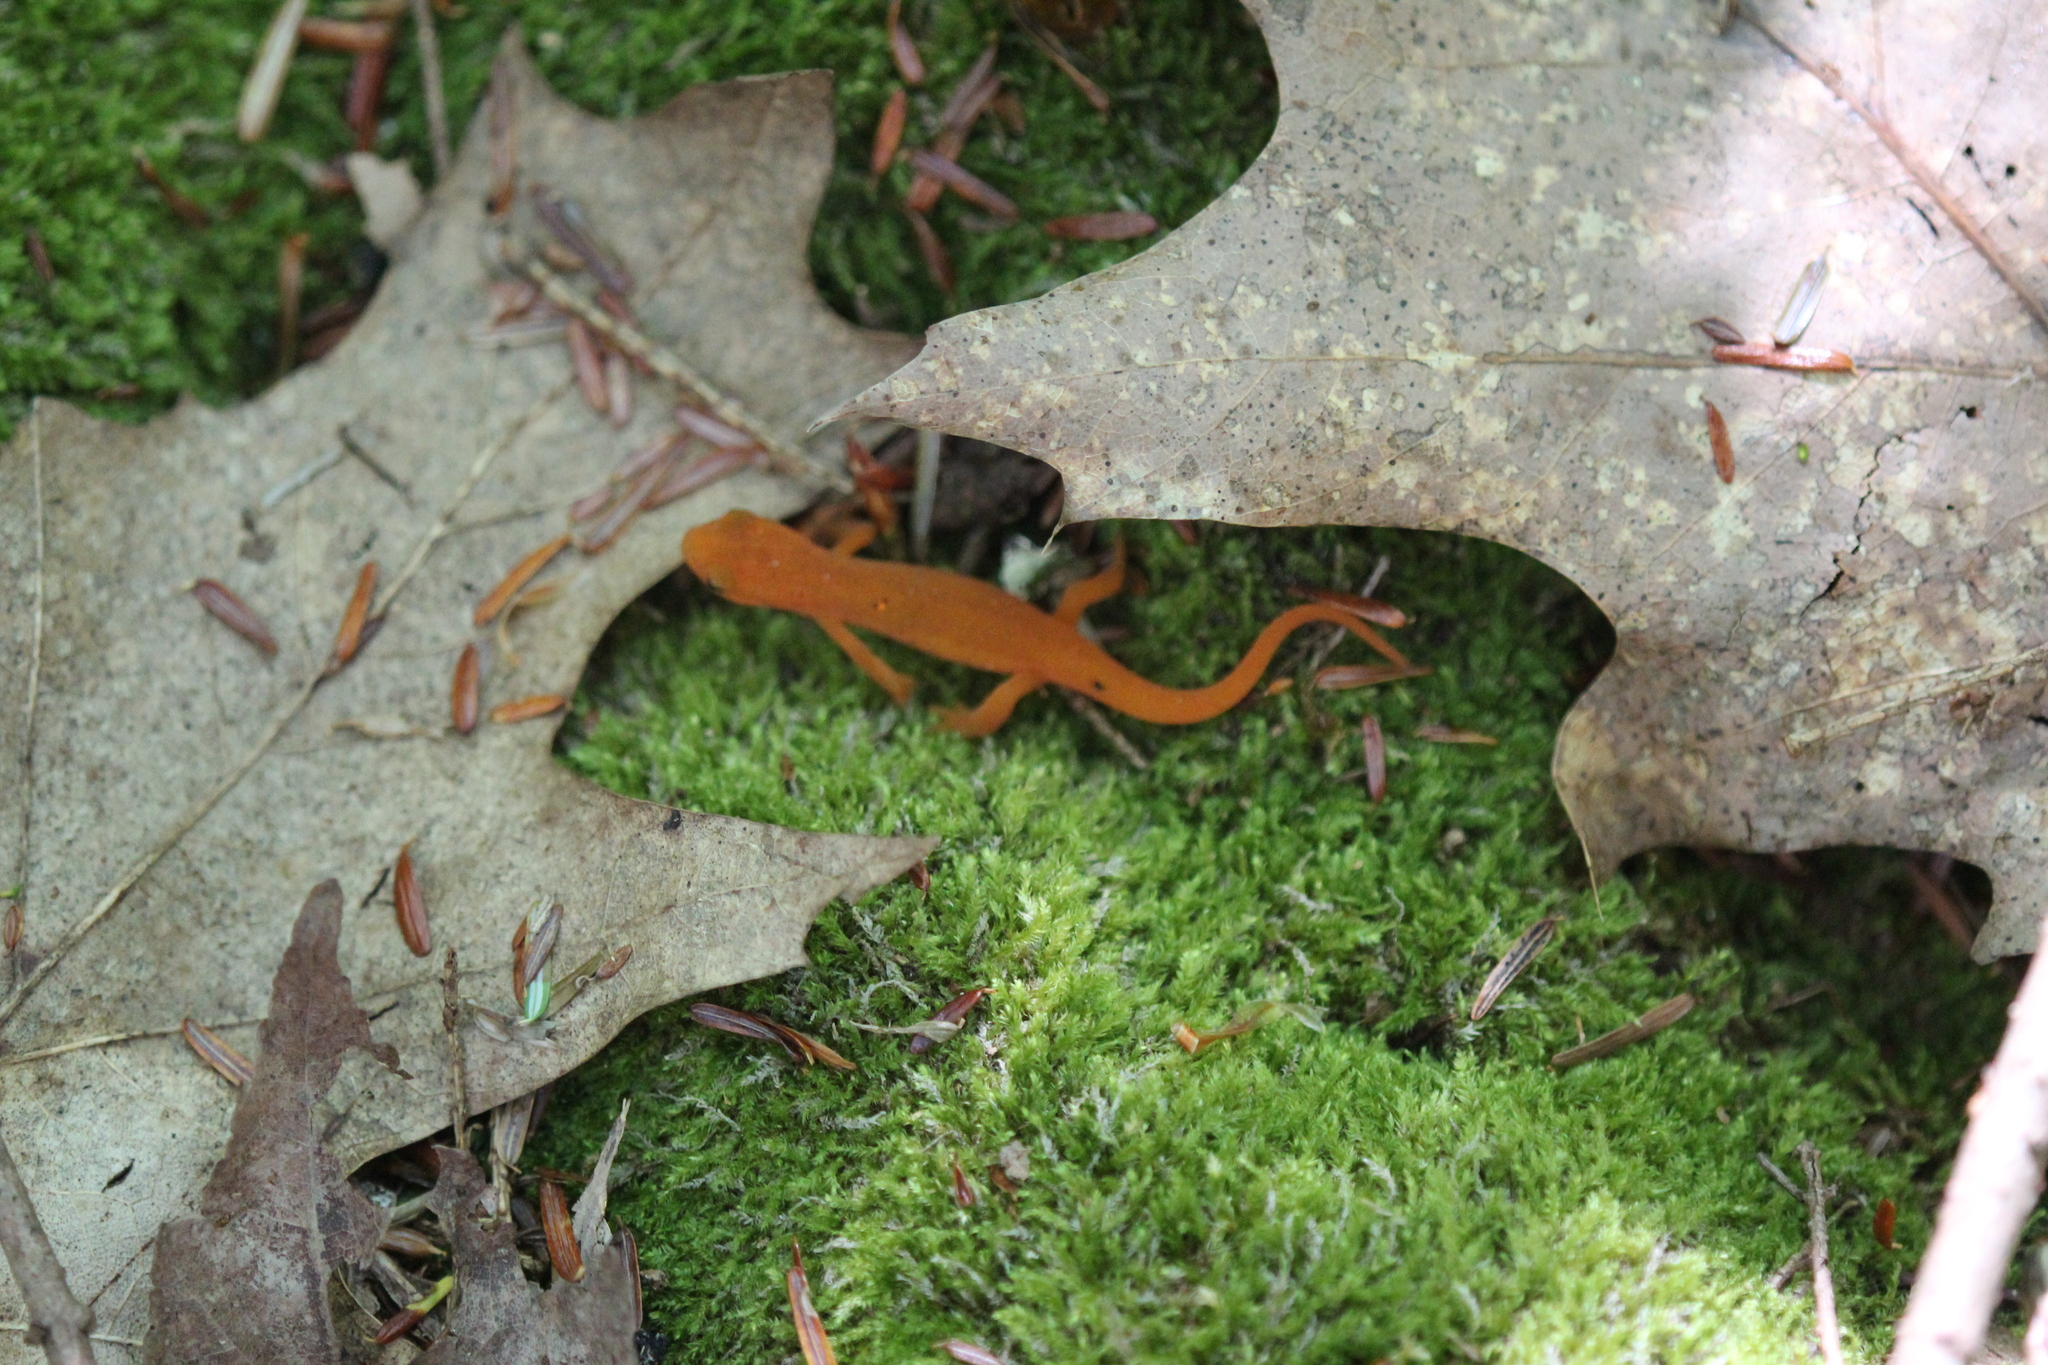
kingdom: Animalia
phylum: Chordata
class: Amphibia
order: Caudata
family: Salamandridae
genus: Notophthalmus
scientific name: Notophthalmus viridescens
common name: Eastern newt
